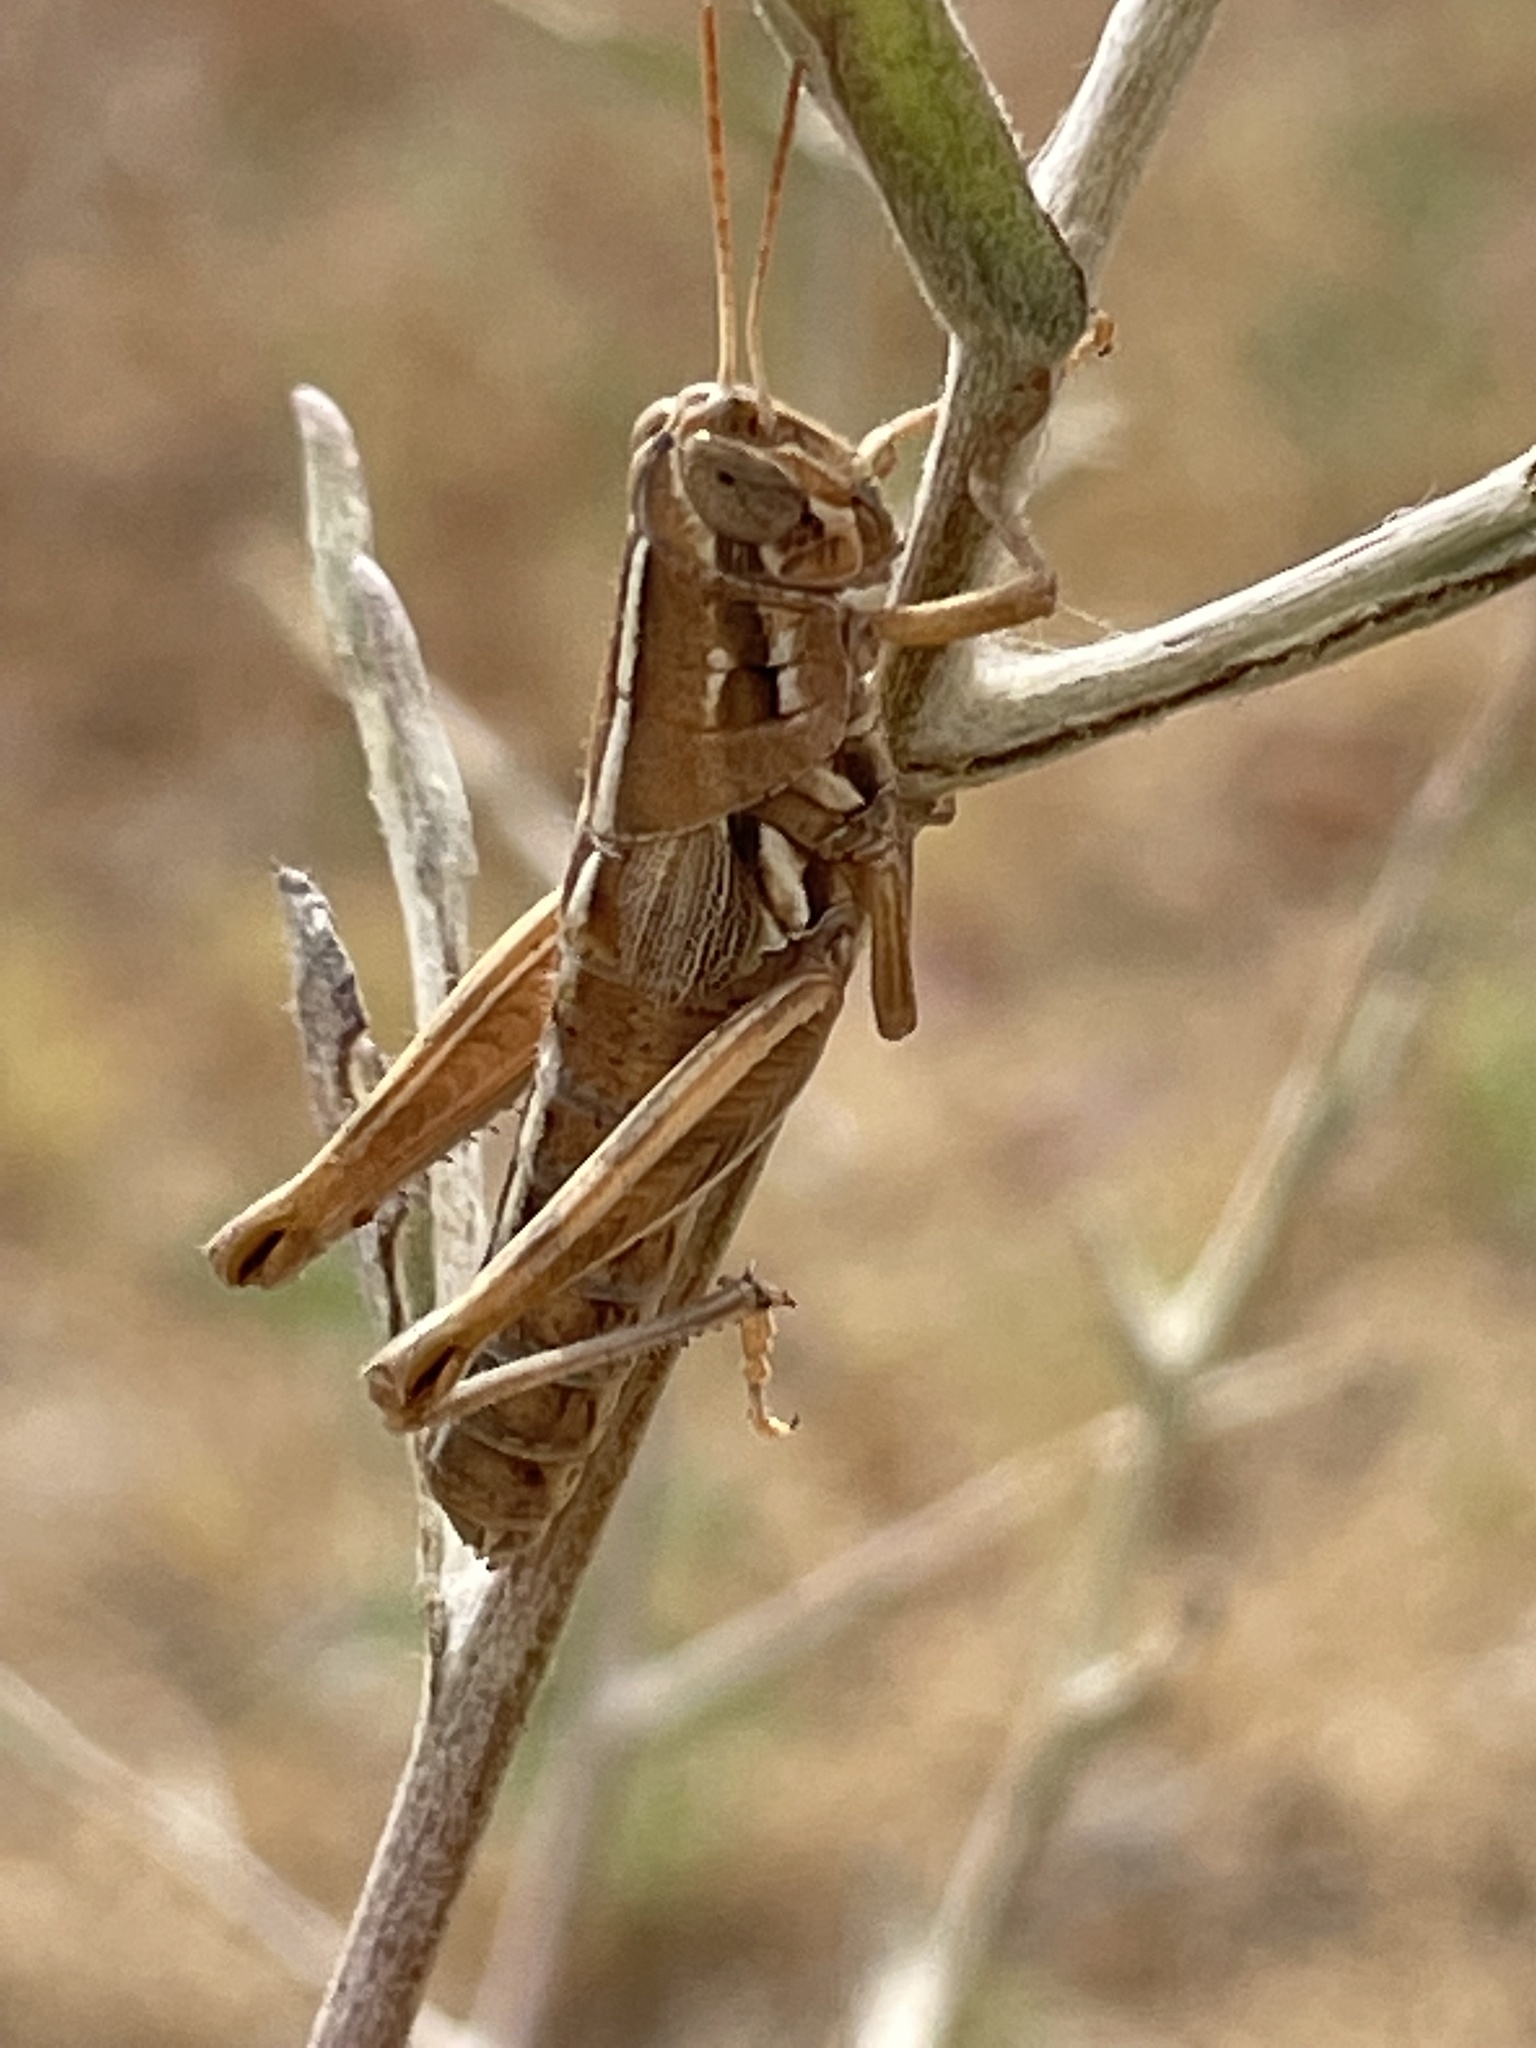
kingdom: Animalia
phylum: Arthropoda
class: Insecta
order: Orthoptera
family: Acrididae
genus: Hesperotettix
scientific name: Hesperotettix pacificus
